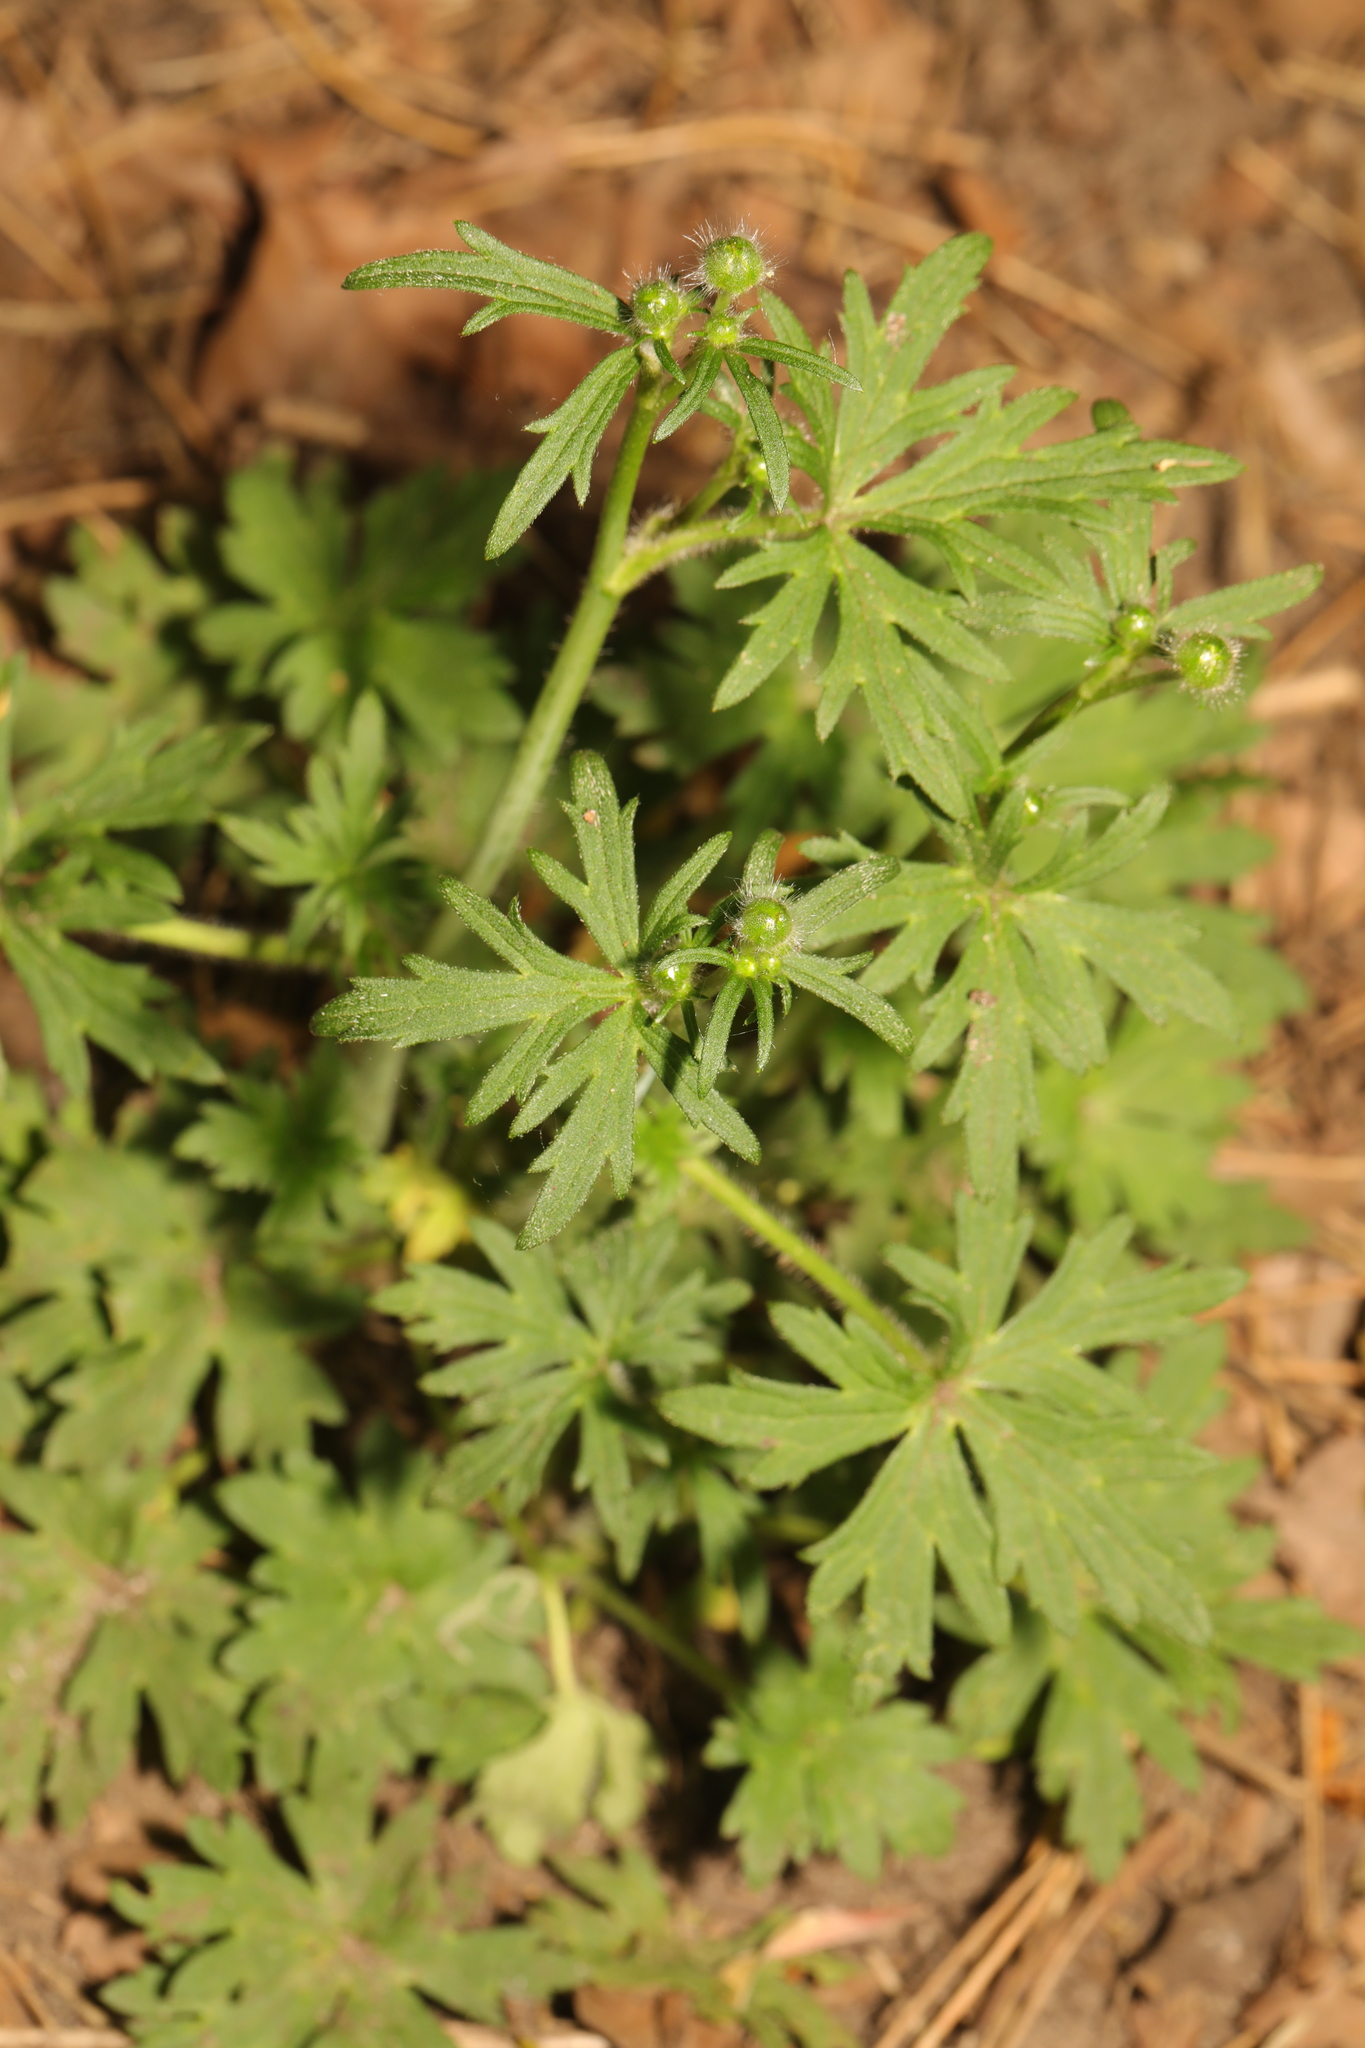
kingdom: Plantae
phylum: Tracheophyta
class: Magnoliopsida
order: Ranunculales
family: Ranunculaceae
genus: Ranunculus
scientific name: Ranunculus acris
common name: Meadow buttercup
